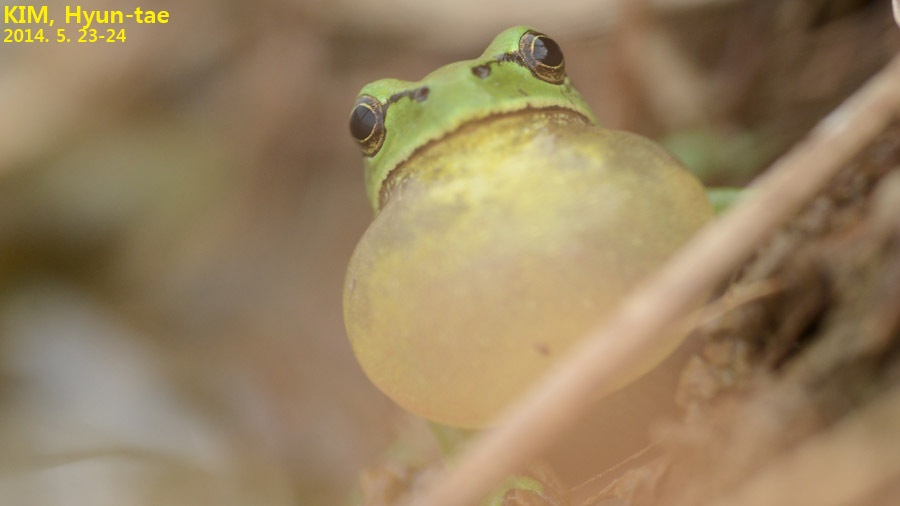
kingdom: Animalia
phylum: Chordata
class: Amphibia
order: Anura
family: Hylidae
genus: Dryophytes
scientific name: Dryophytes immaculatus
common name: North china treefrog
